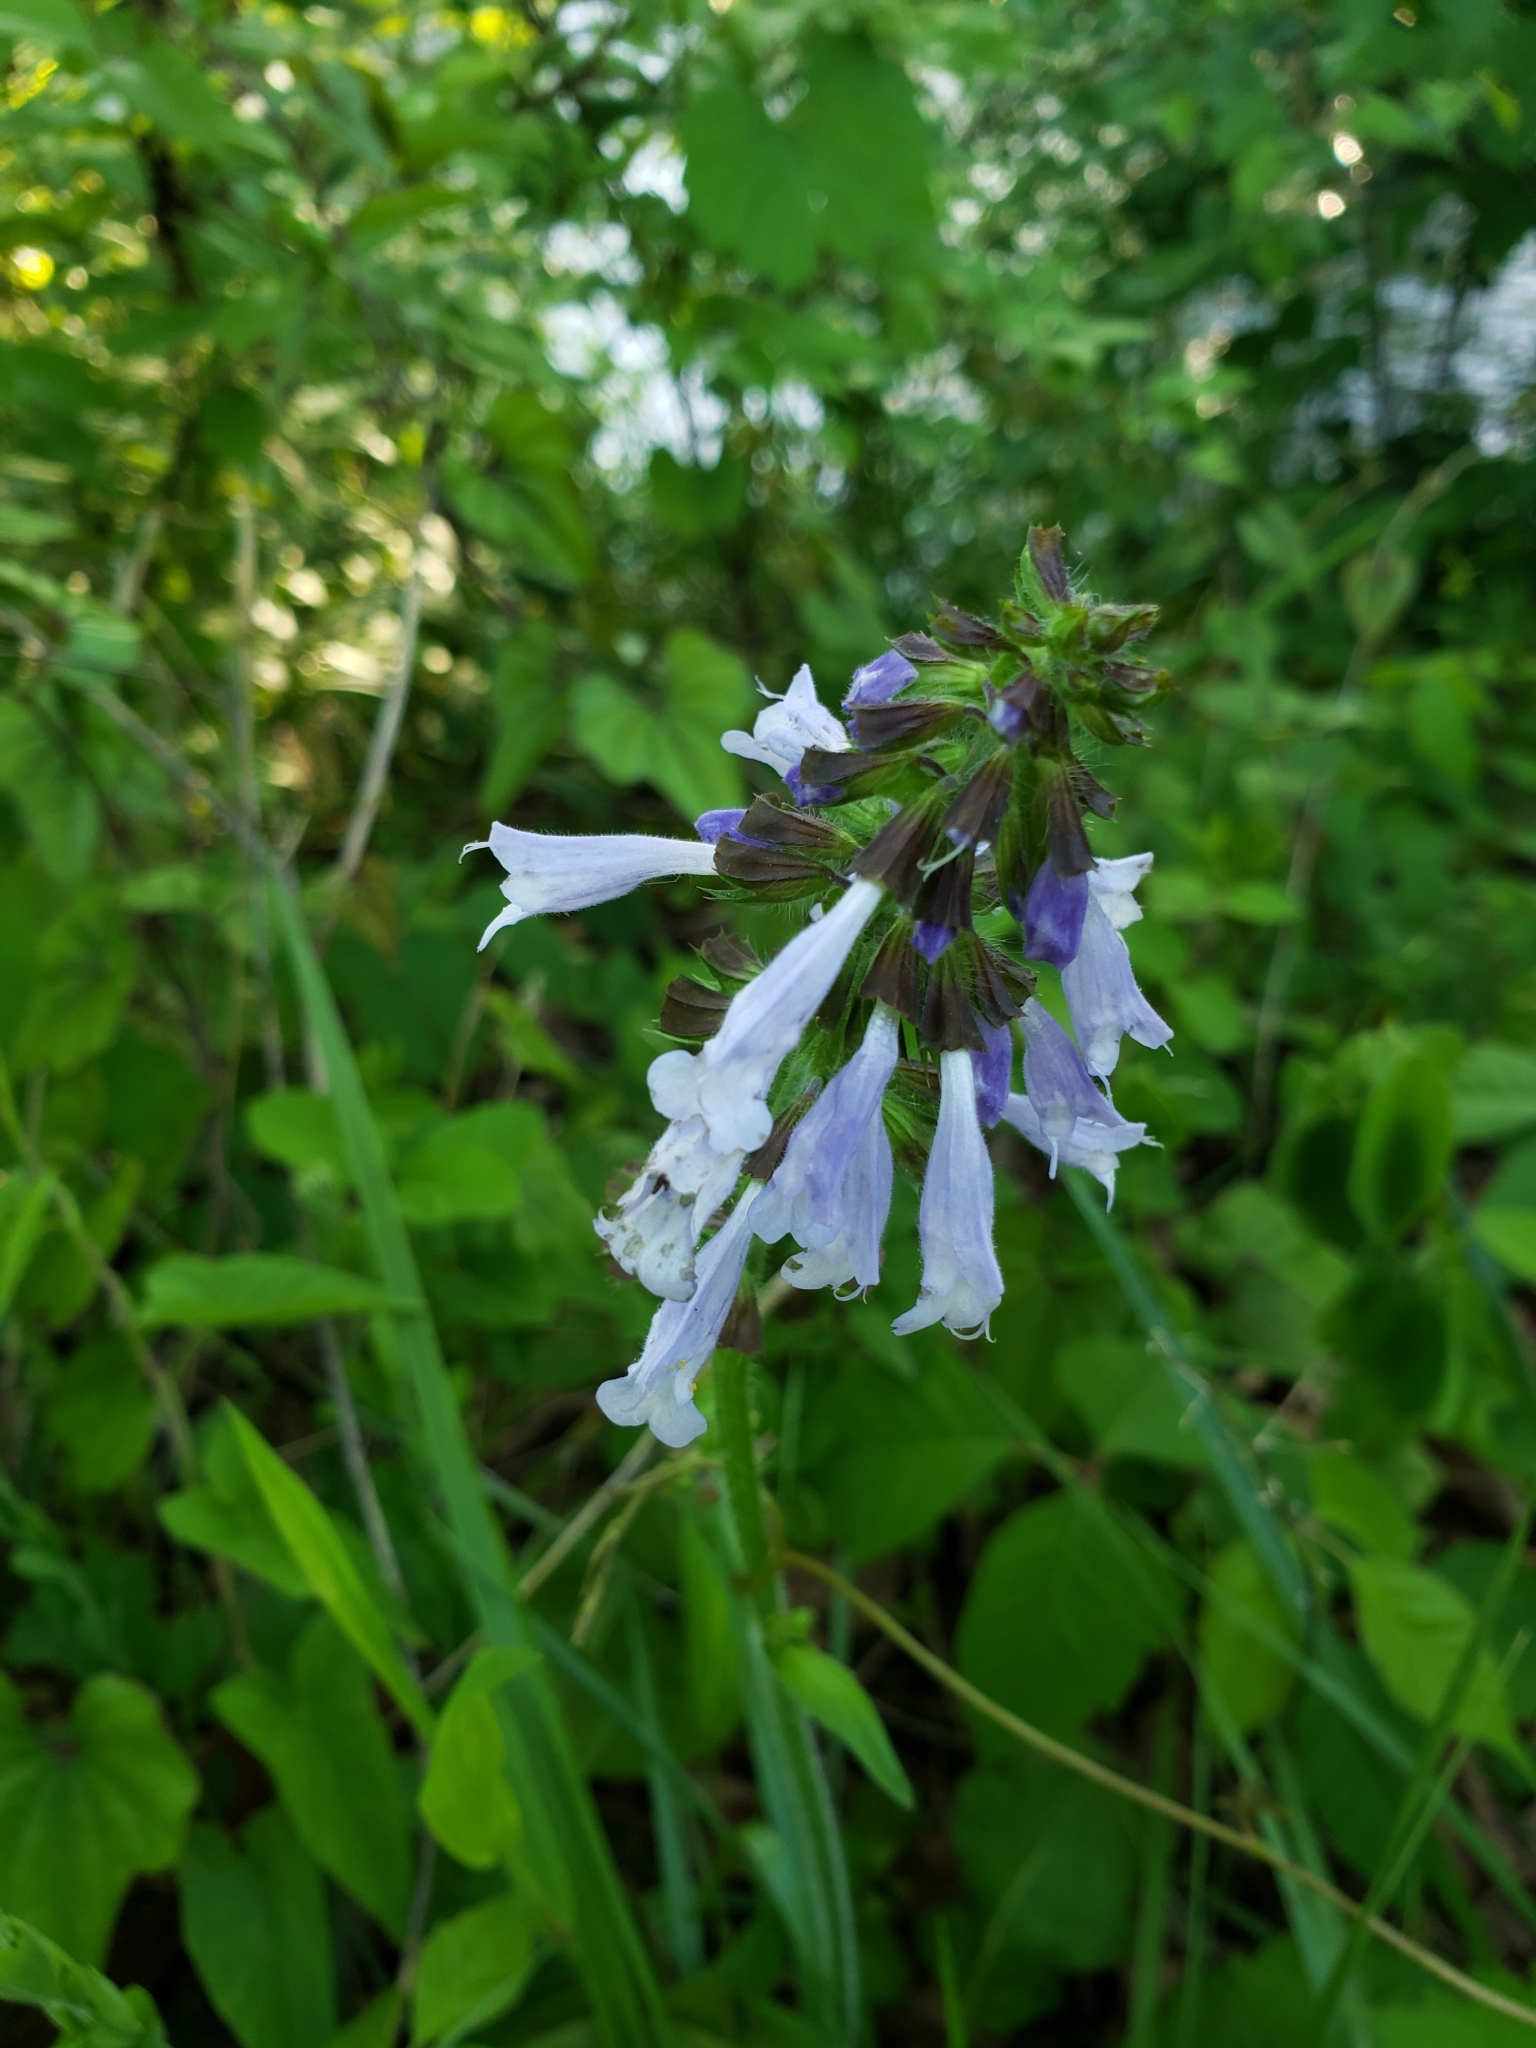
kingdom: Plantae
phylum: Tracheophyta
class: Magnoliopsida
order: Lamiales
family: Lamiaceae
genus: Salvia
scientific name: Salvia lyrata
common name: Cancerweed
